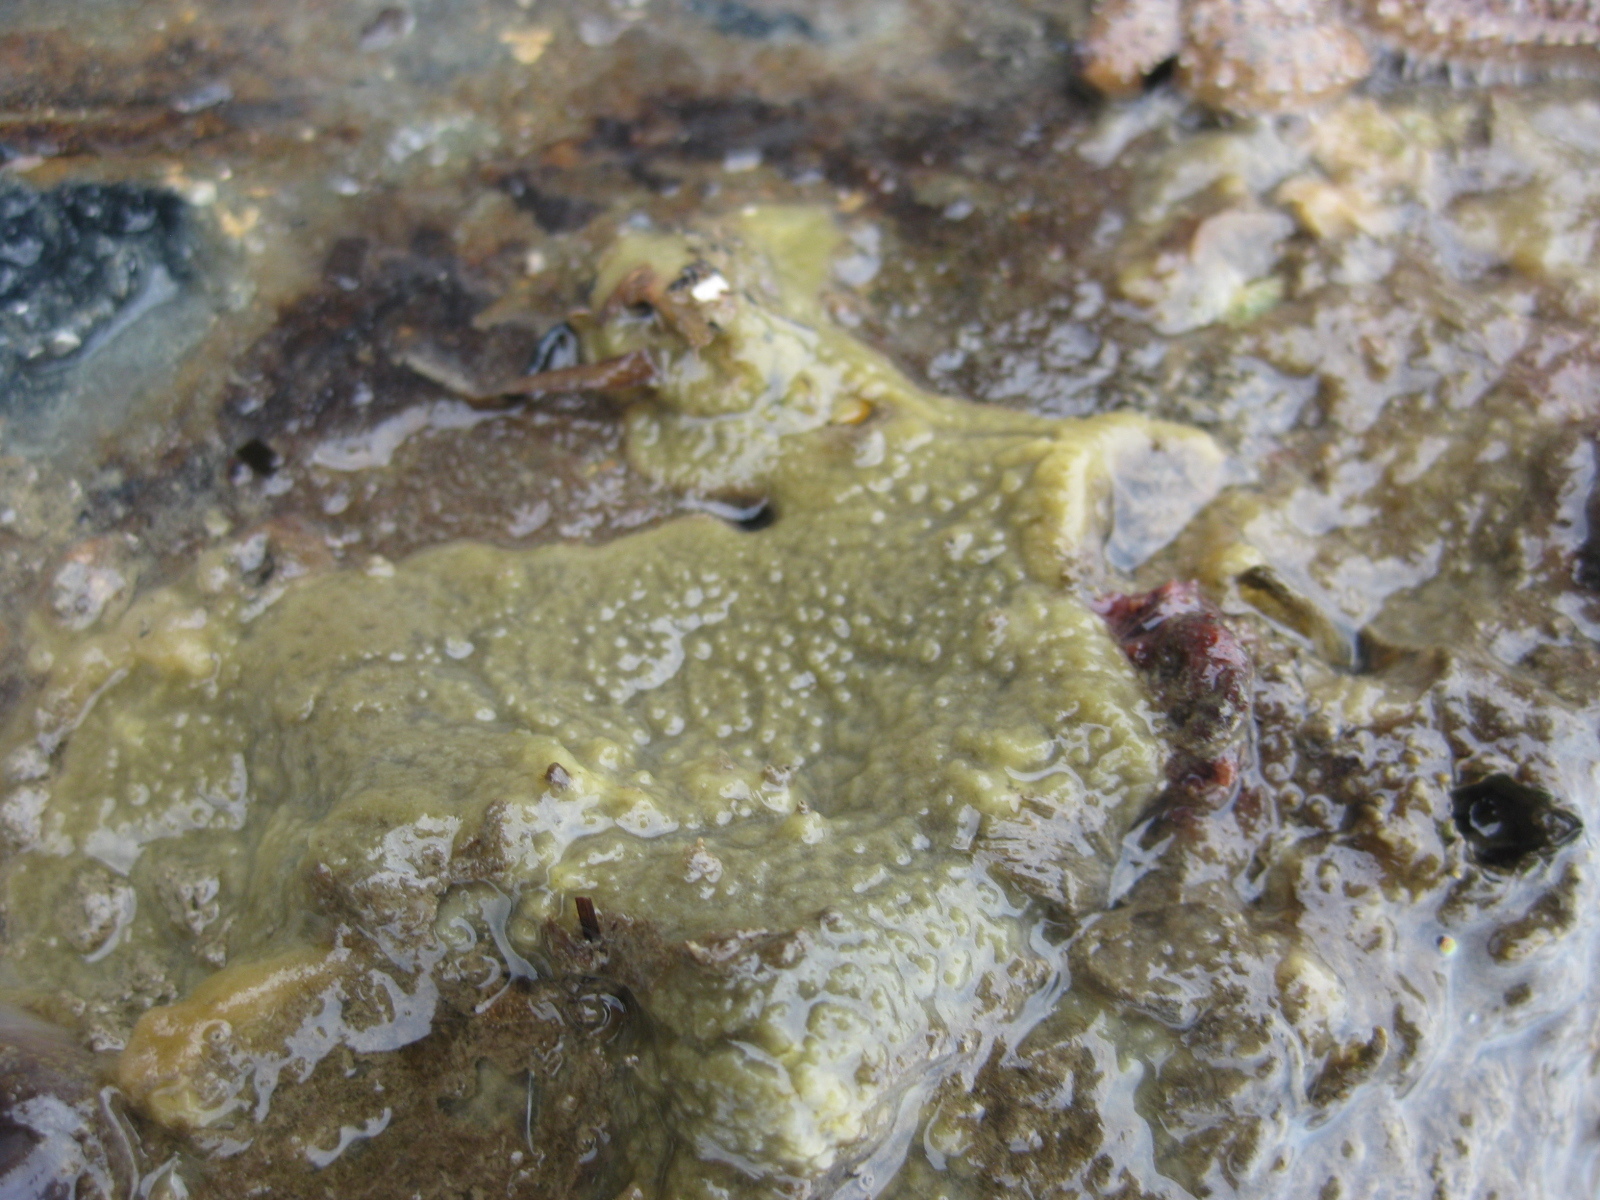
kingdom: Animalia
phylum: Porifera
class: Demospongiae
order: Tethyida
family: Timeidae
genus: Timea
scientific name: Timea aurantiaca
